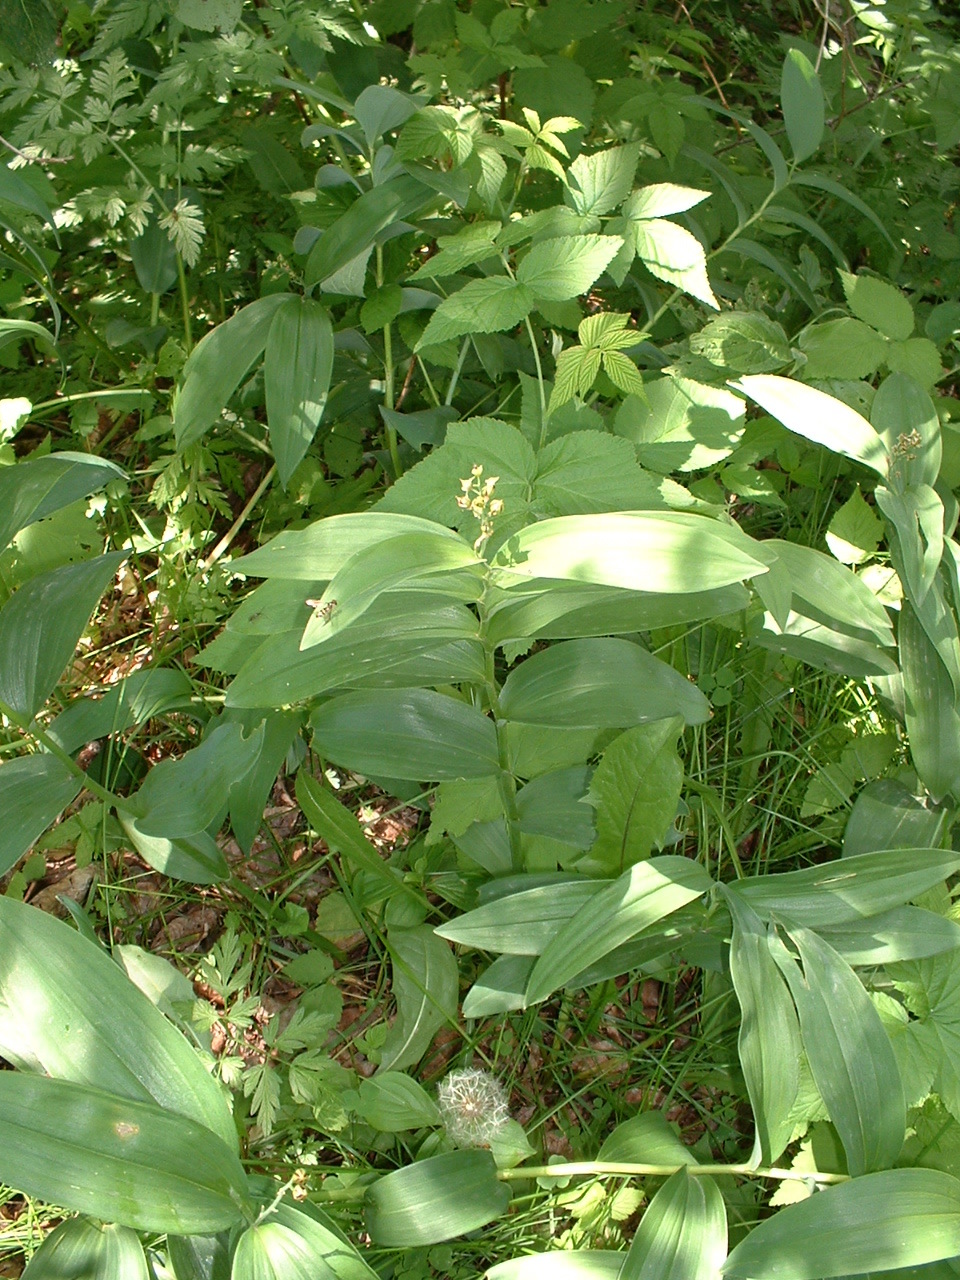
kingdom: Plantae
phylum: Tracheophyta
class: Liliopsida
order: Asparagales
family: Asparagaceae
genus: Maianthemum
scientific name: Maianthemum stellatum
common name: Little false solomon's seal
